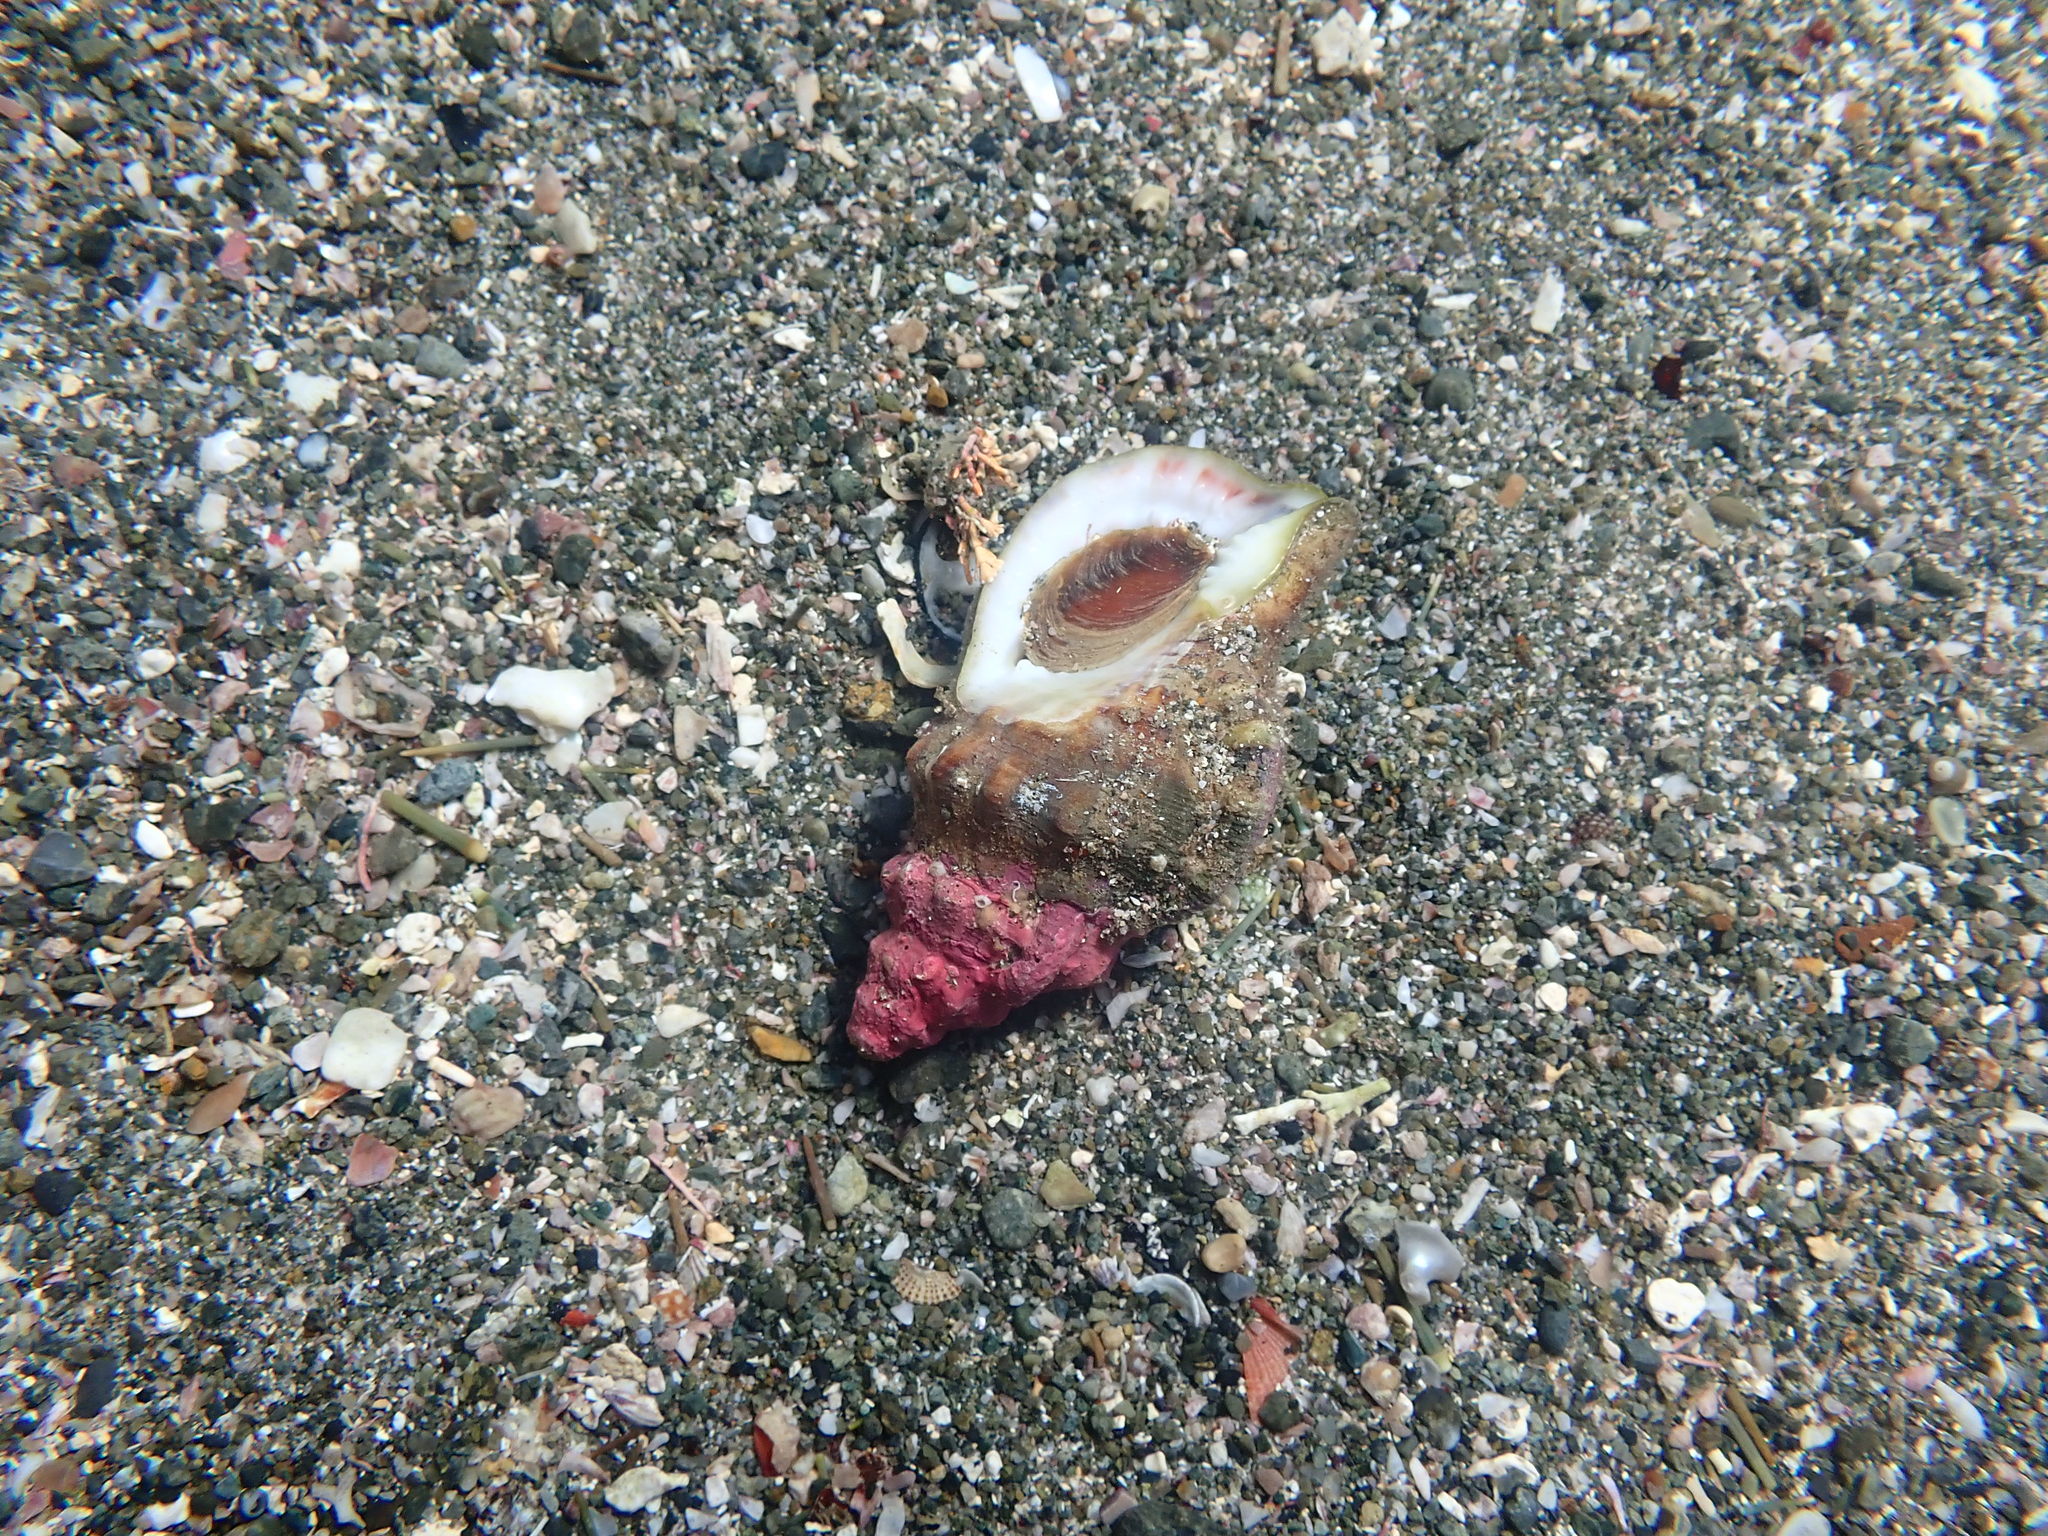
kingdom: Animalia
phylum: Mollusca
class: Gastropoda
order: Littorinimorpha
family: Ranellidae
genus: Ranella
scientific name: Ranella australasia
